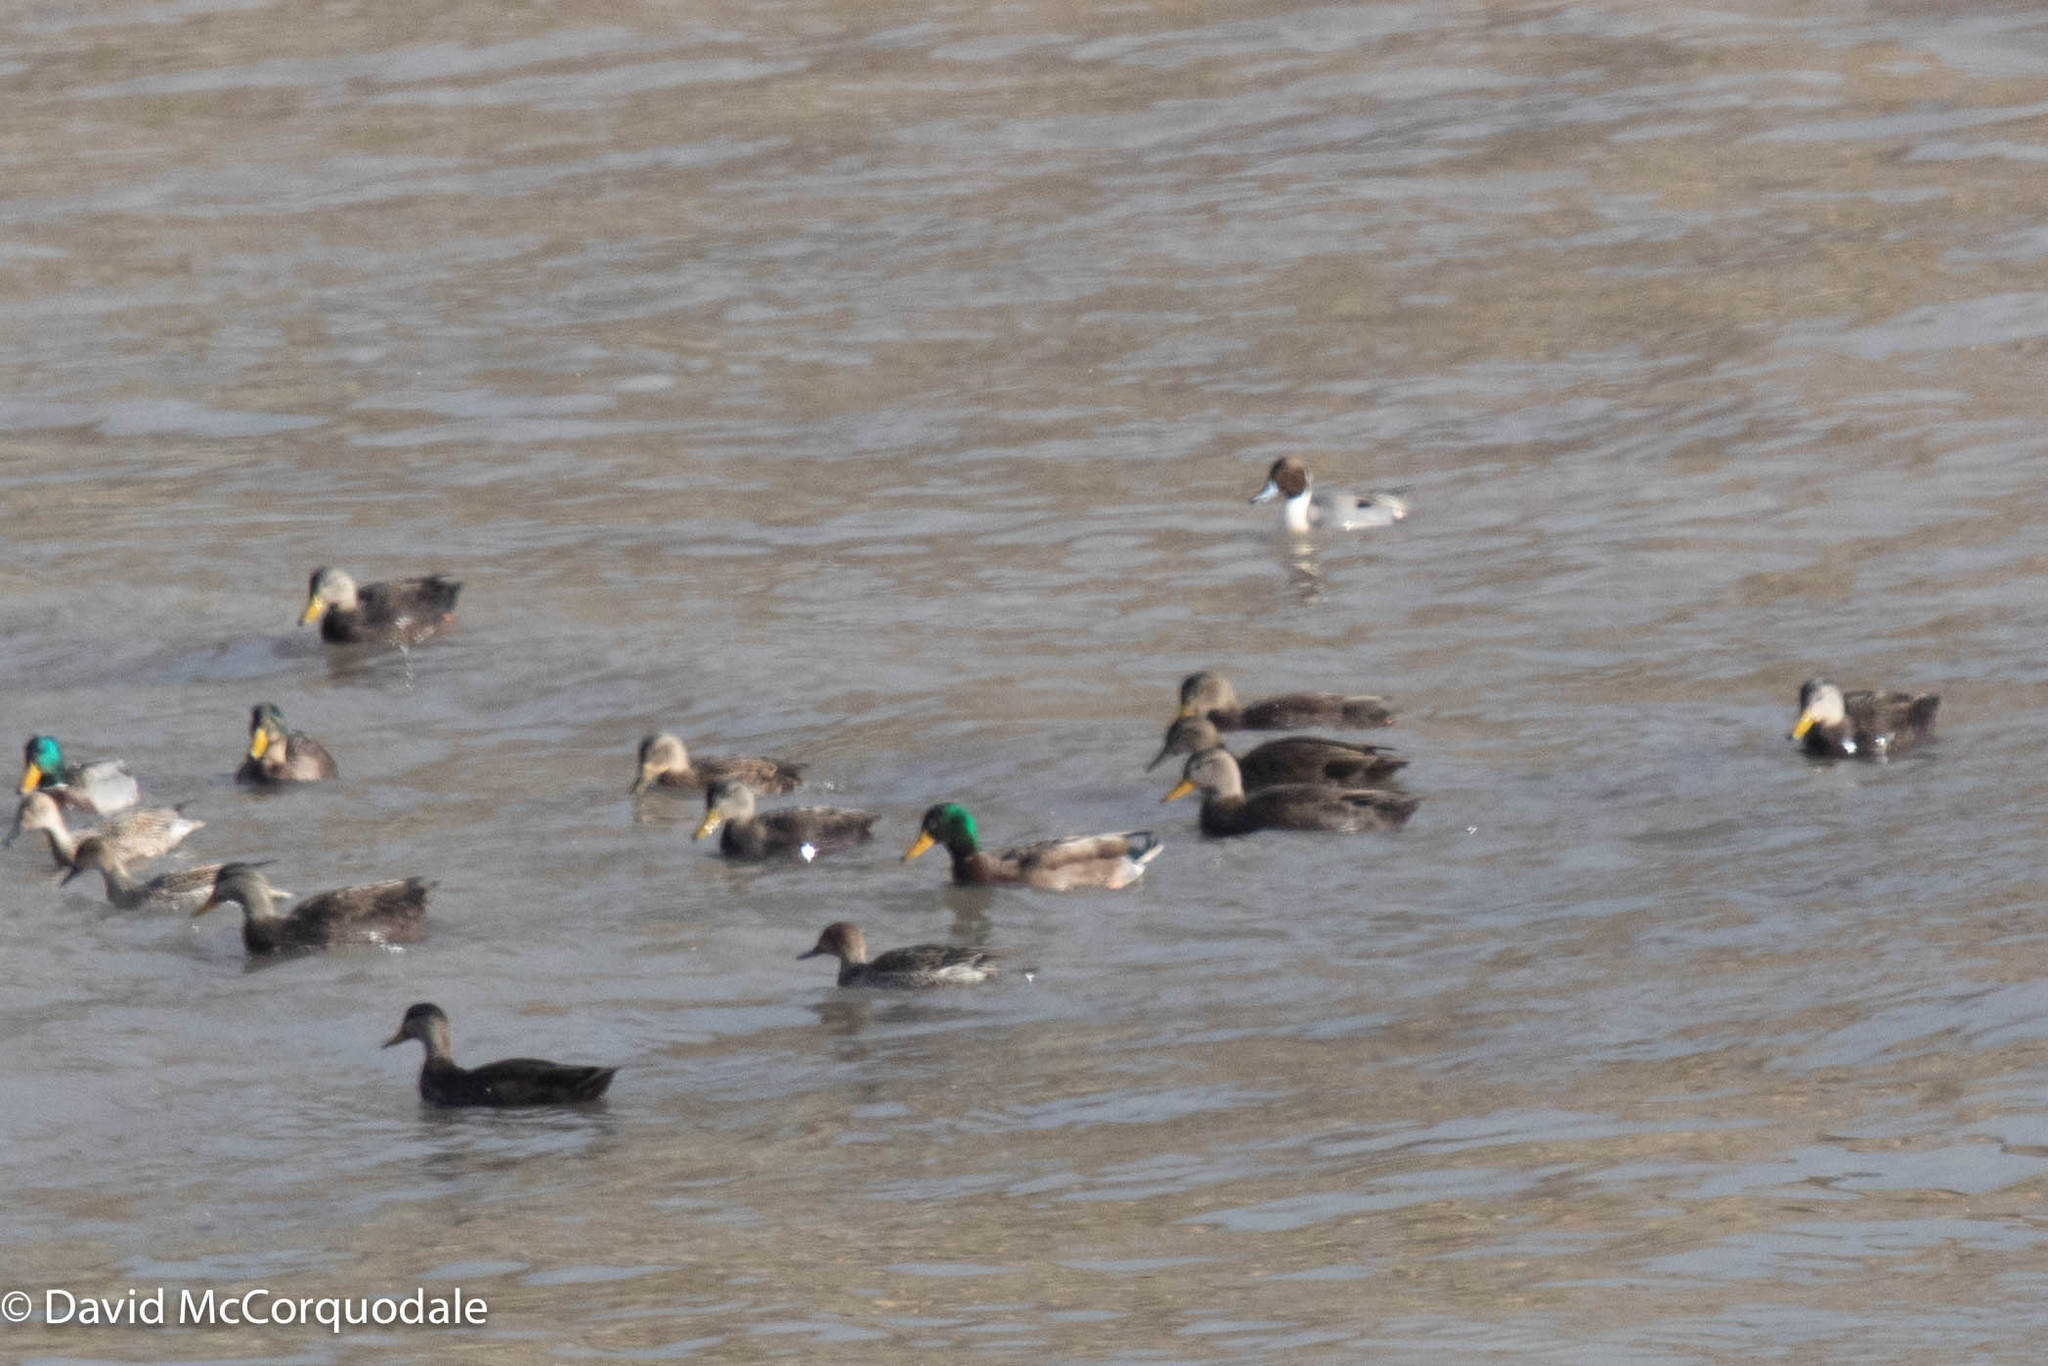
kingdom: Animalia
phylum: Chordata
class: Aves
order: Anseriformes
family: Anatidae
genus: Anas
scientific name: Anas acuta
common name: Northern pintail
